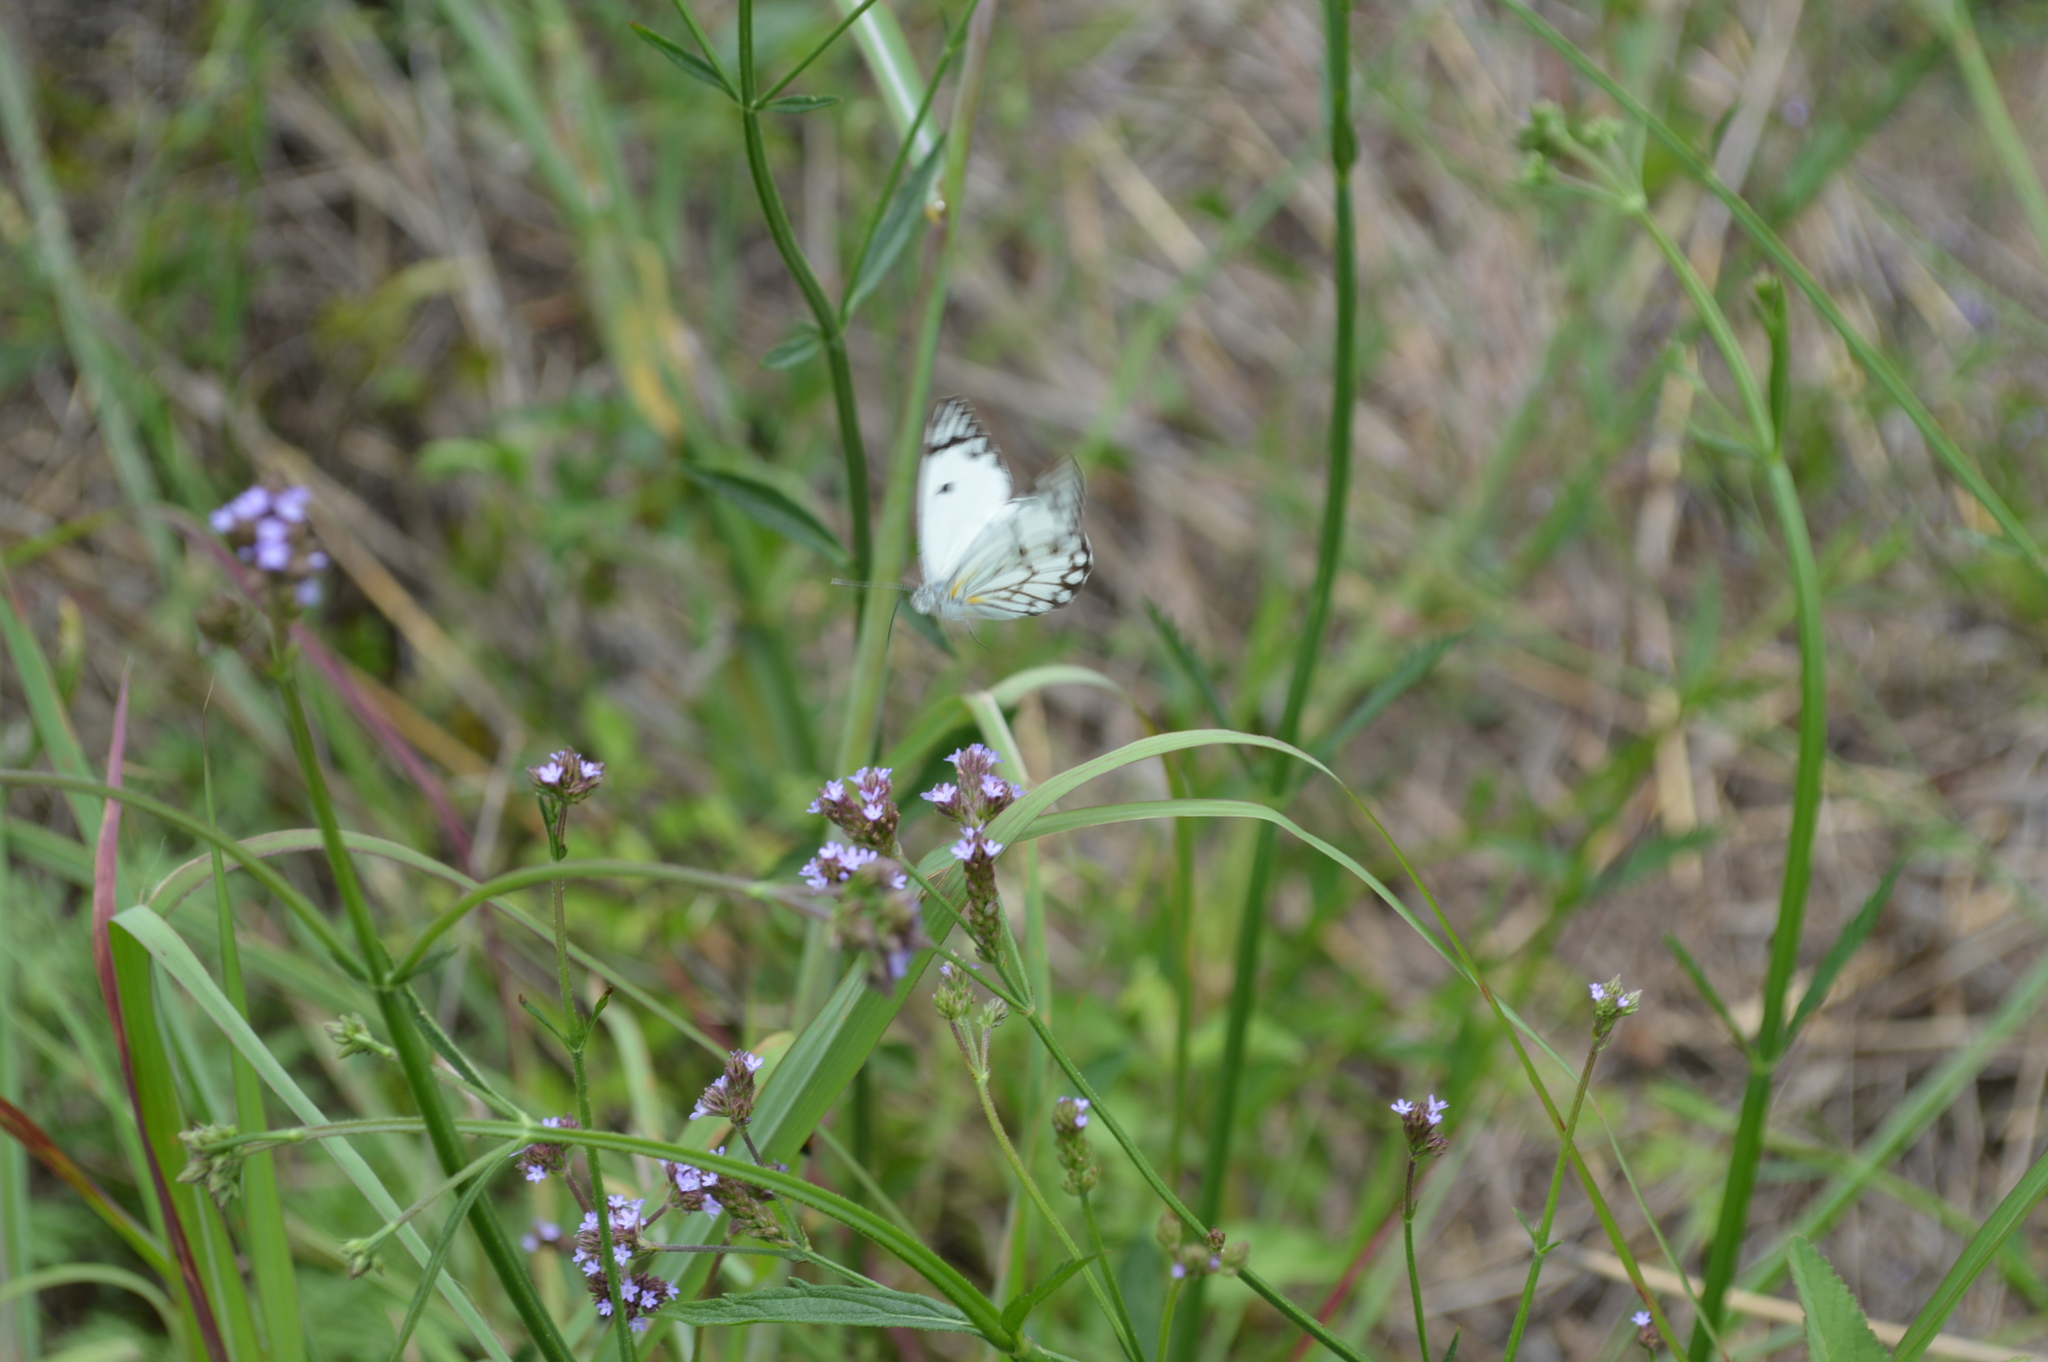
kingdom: Animalia
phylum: Arthropoda
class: Insecta
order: Lepidoptera
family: Pieridae
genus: Belenois
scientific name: Belenois aurota
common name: Brown-veined white
